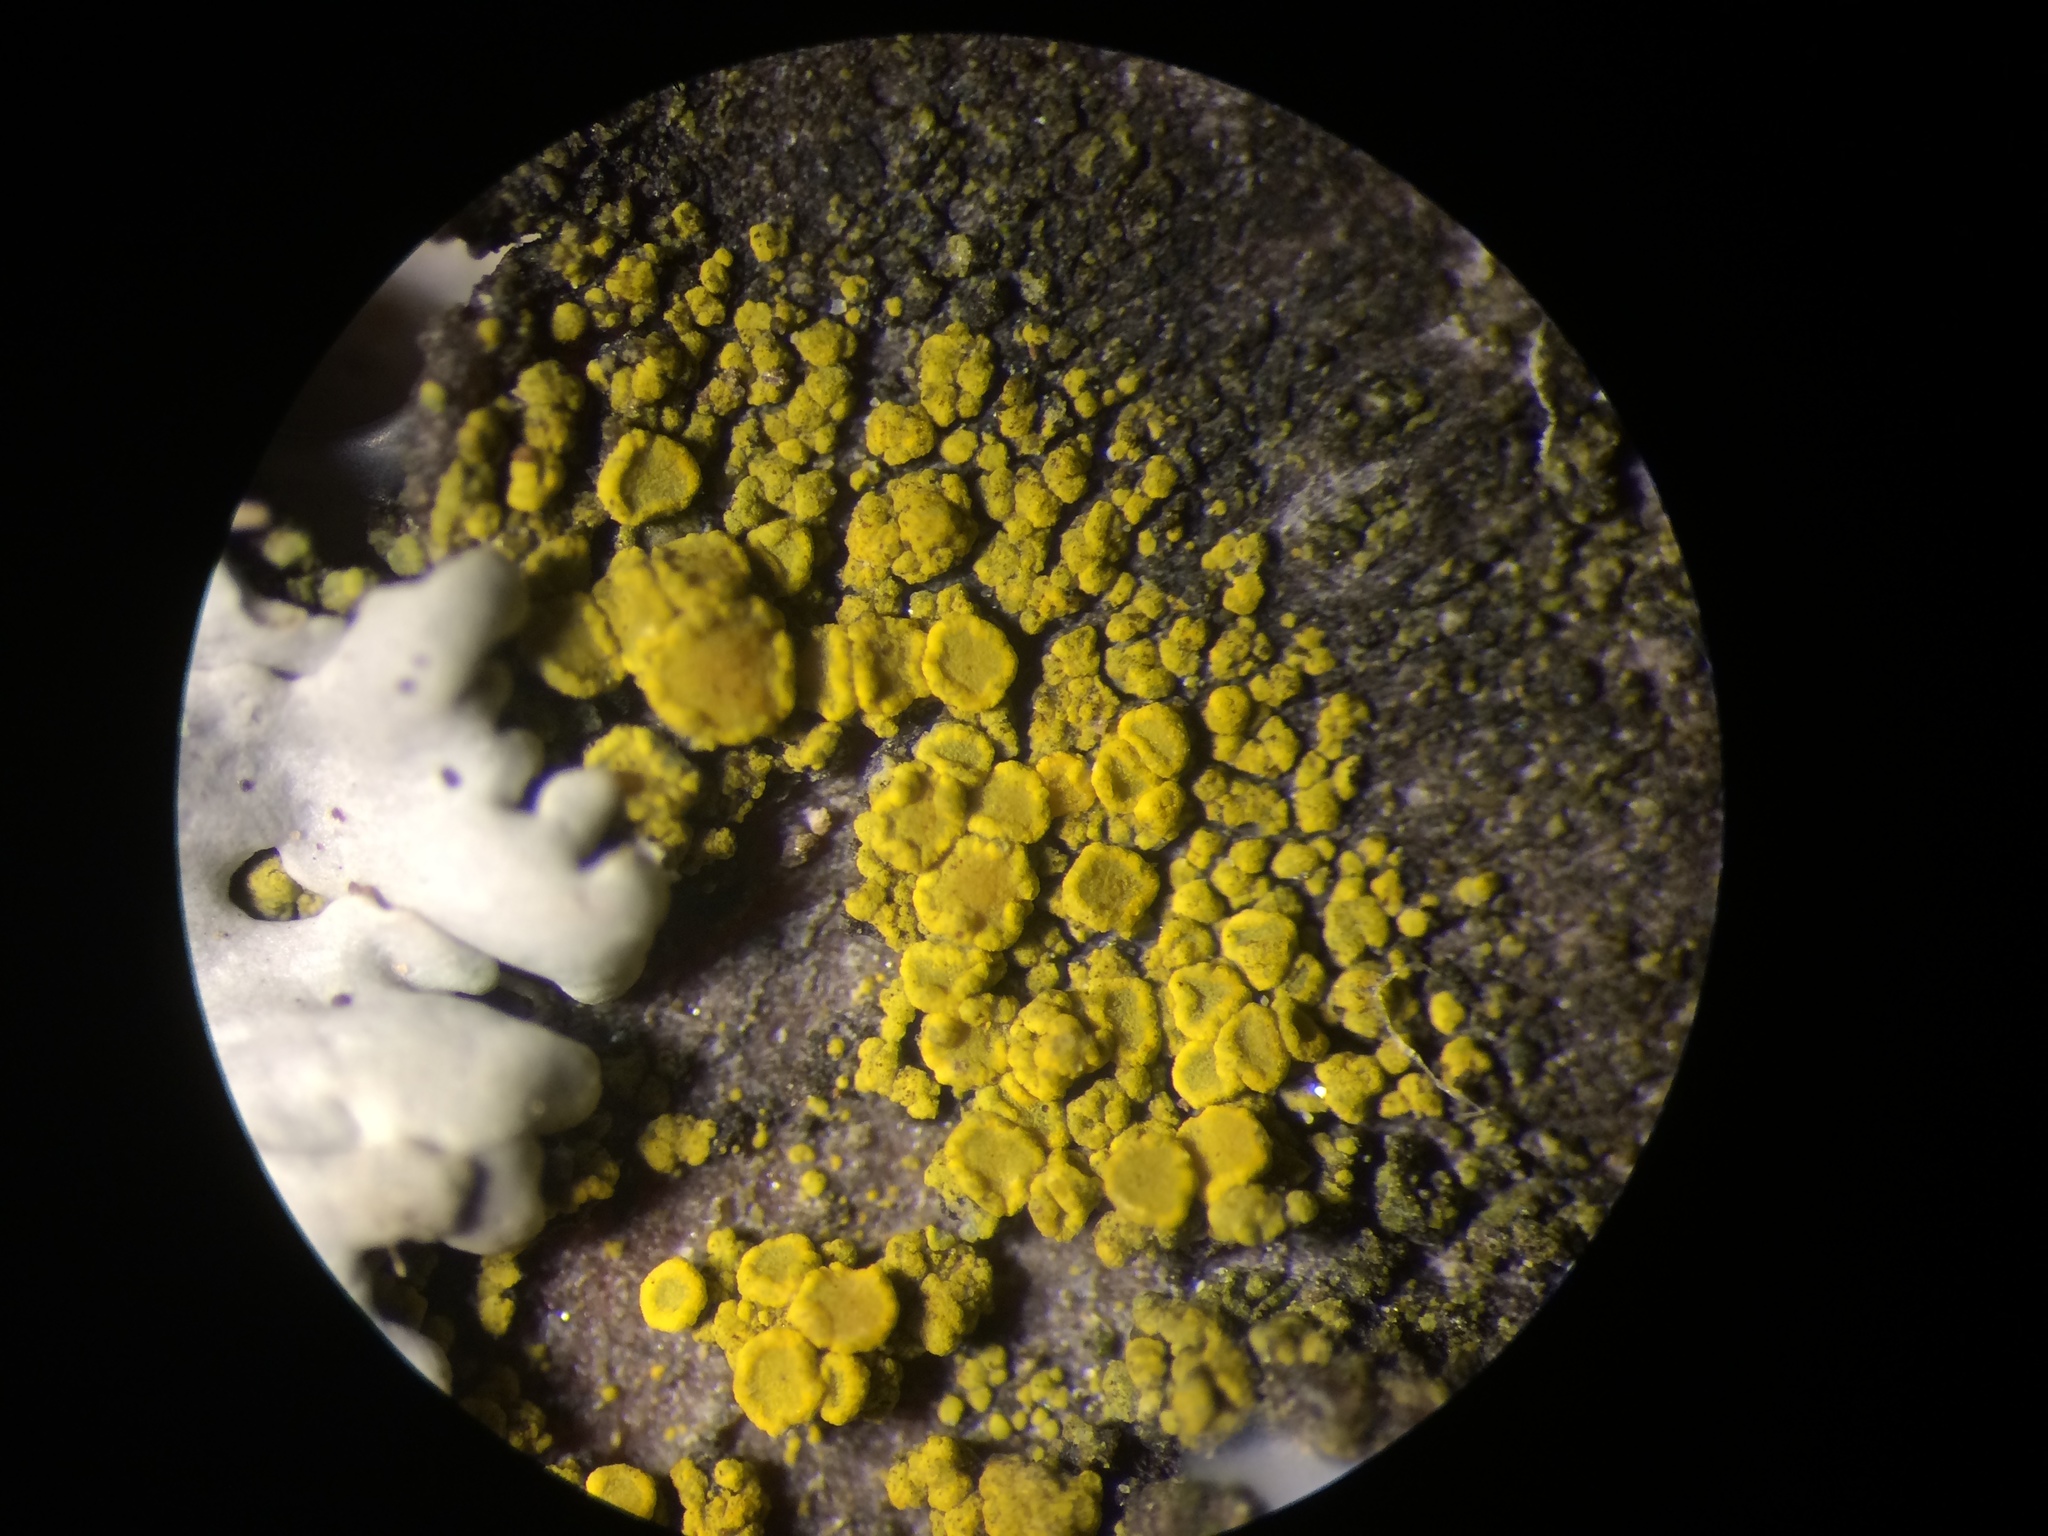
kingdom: Fungi
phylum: Ascomycota
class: Candelariomycetes
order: Candelariales
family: Candelariaceae
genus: Candelariella
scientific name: Candelariella vitellina
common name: Common goldspeck
